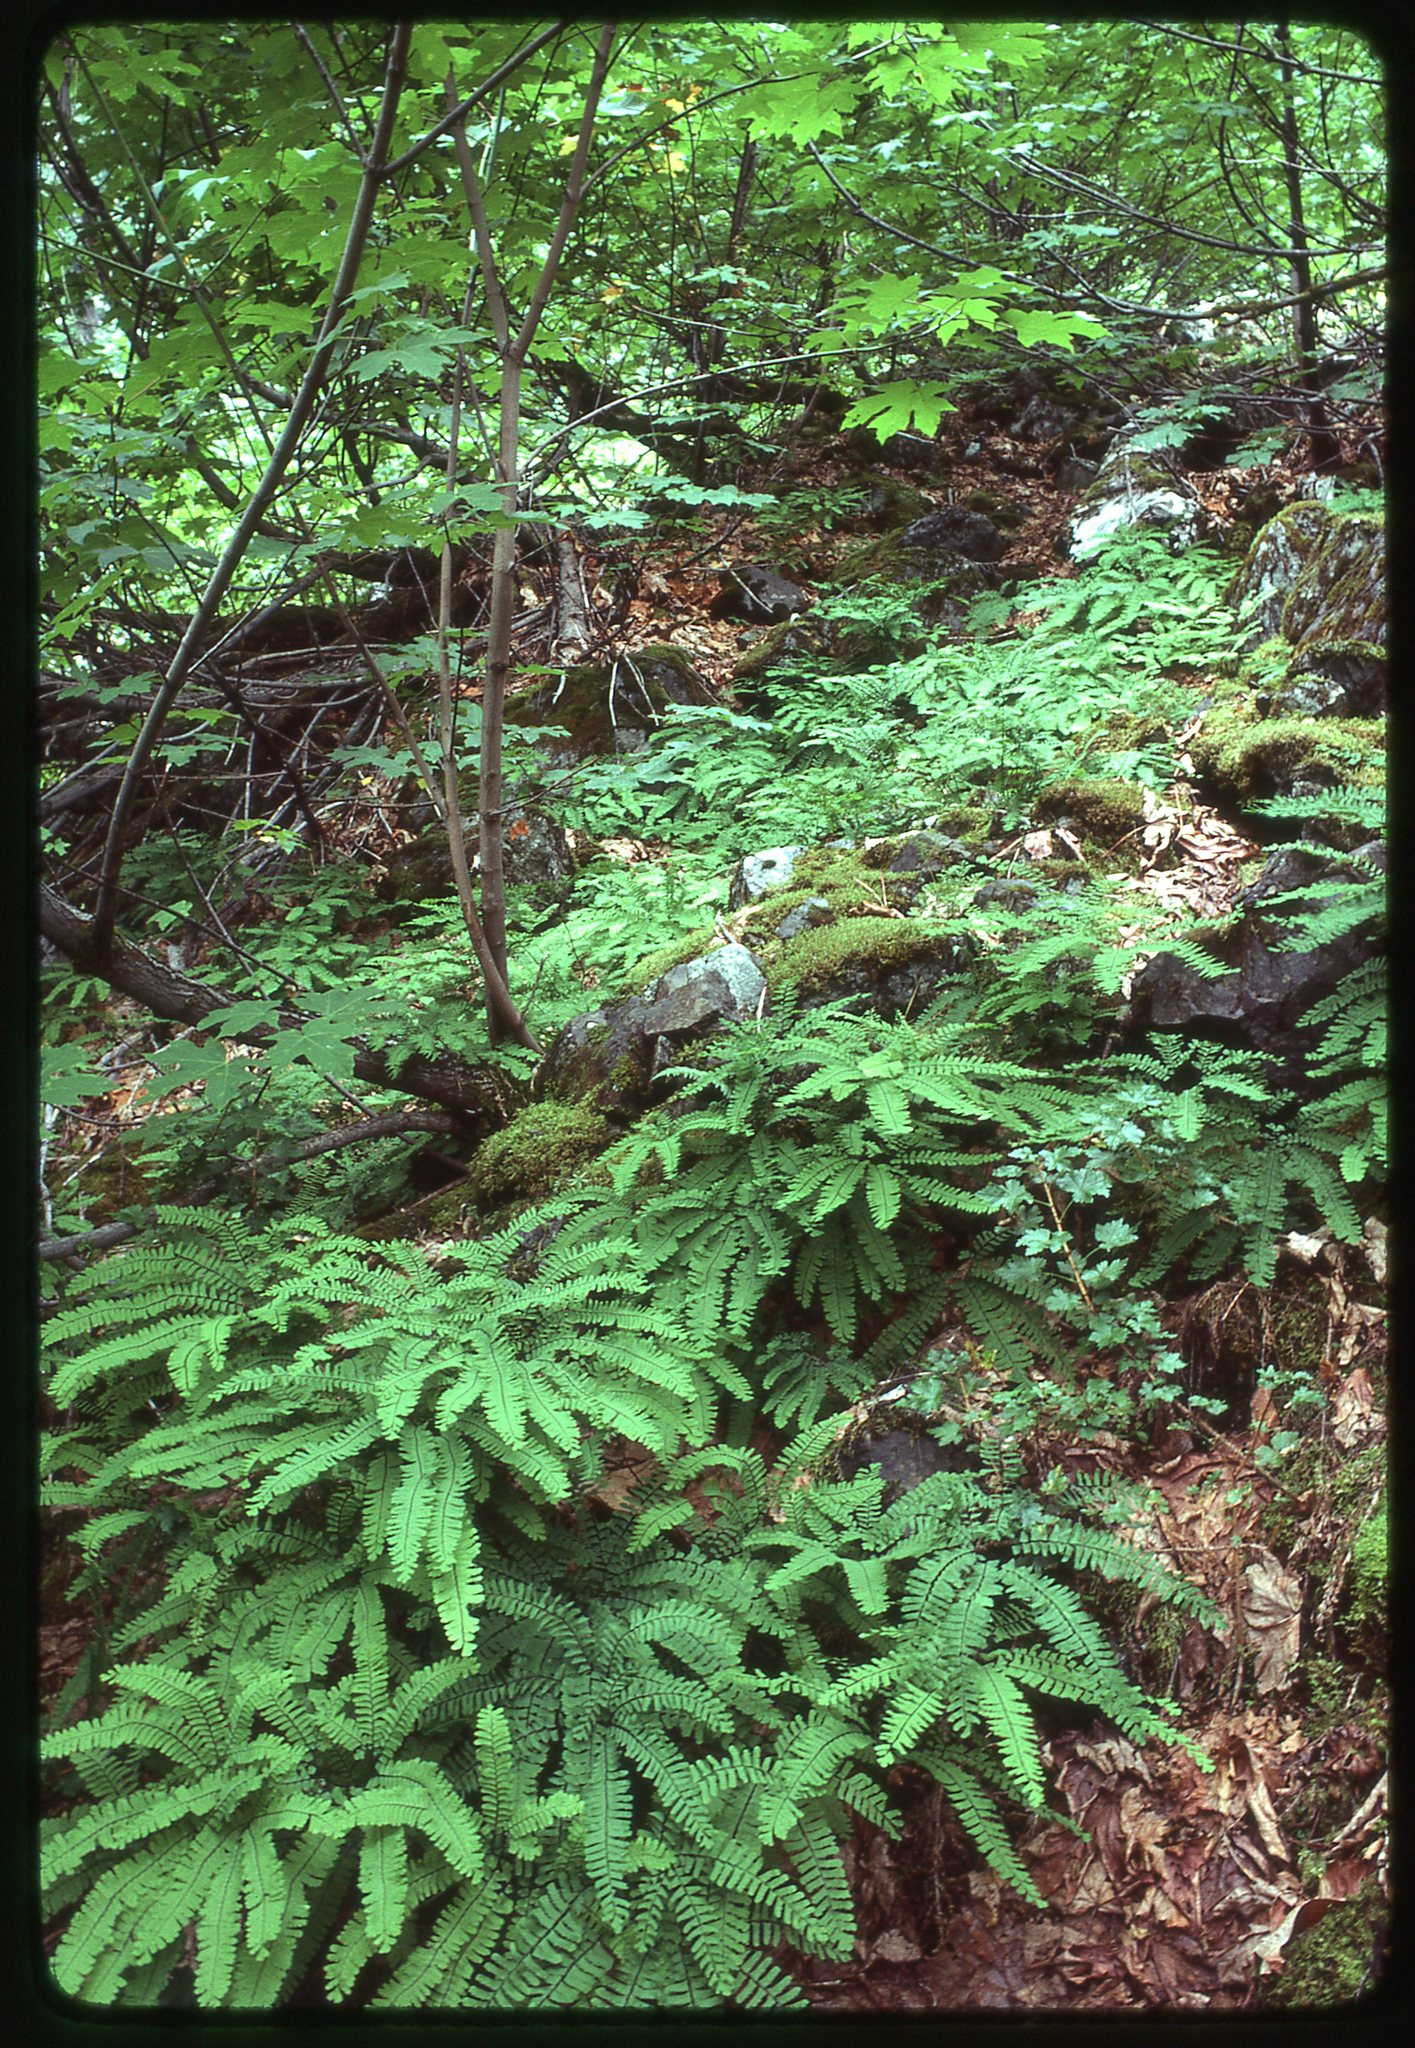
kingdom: Plantae
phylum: Tracheophyta
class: Polypodiopsida
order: Polypodiales
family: Pteridaceae
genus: Adiantum
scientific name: Adiantum aleuticum
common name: Aleutian maidenhair fern
